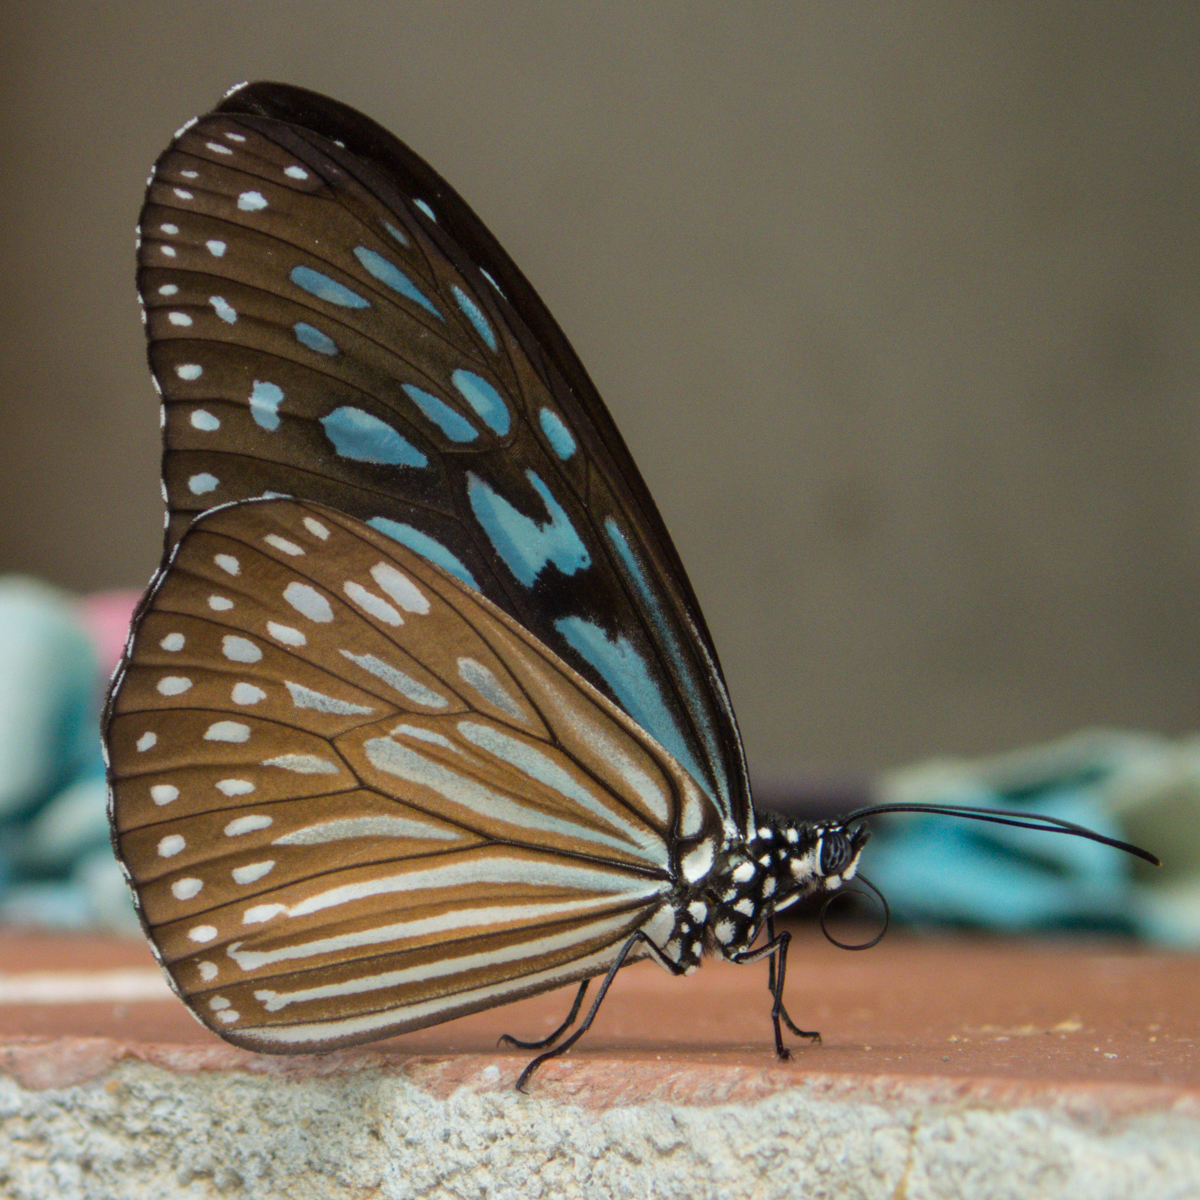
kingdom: Animalia
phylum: Arthropoda
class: Insecta
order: Lepidoptera
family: Nymphalidae
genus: Ideopsis
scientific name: Ideopsis vulgaris
